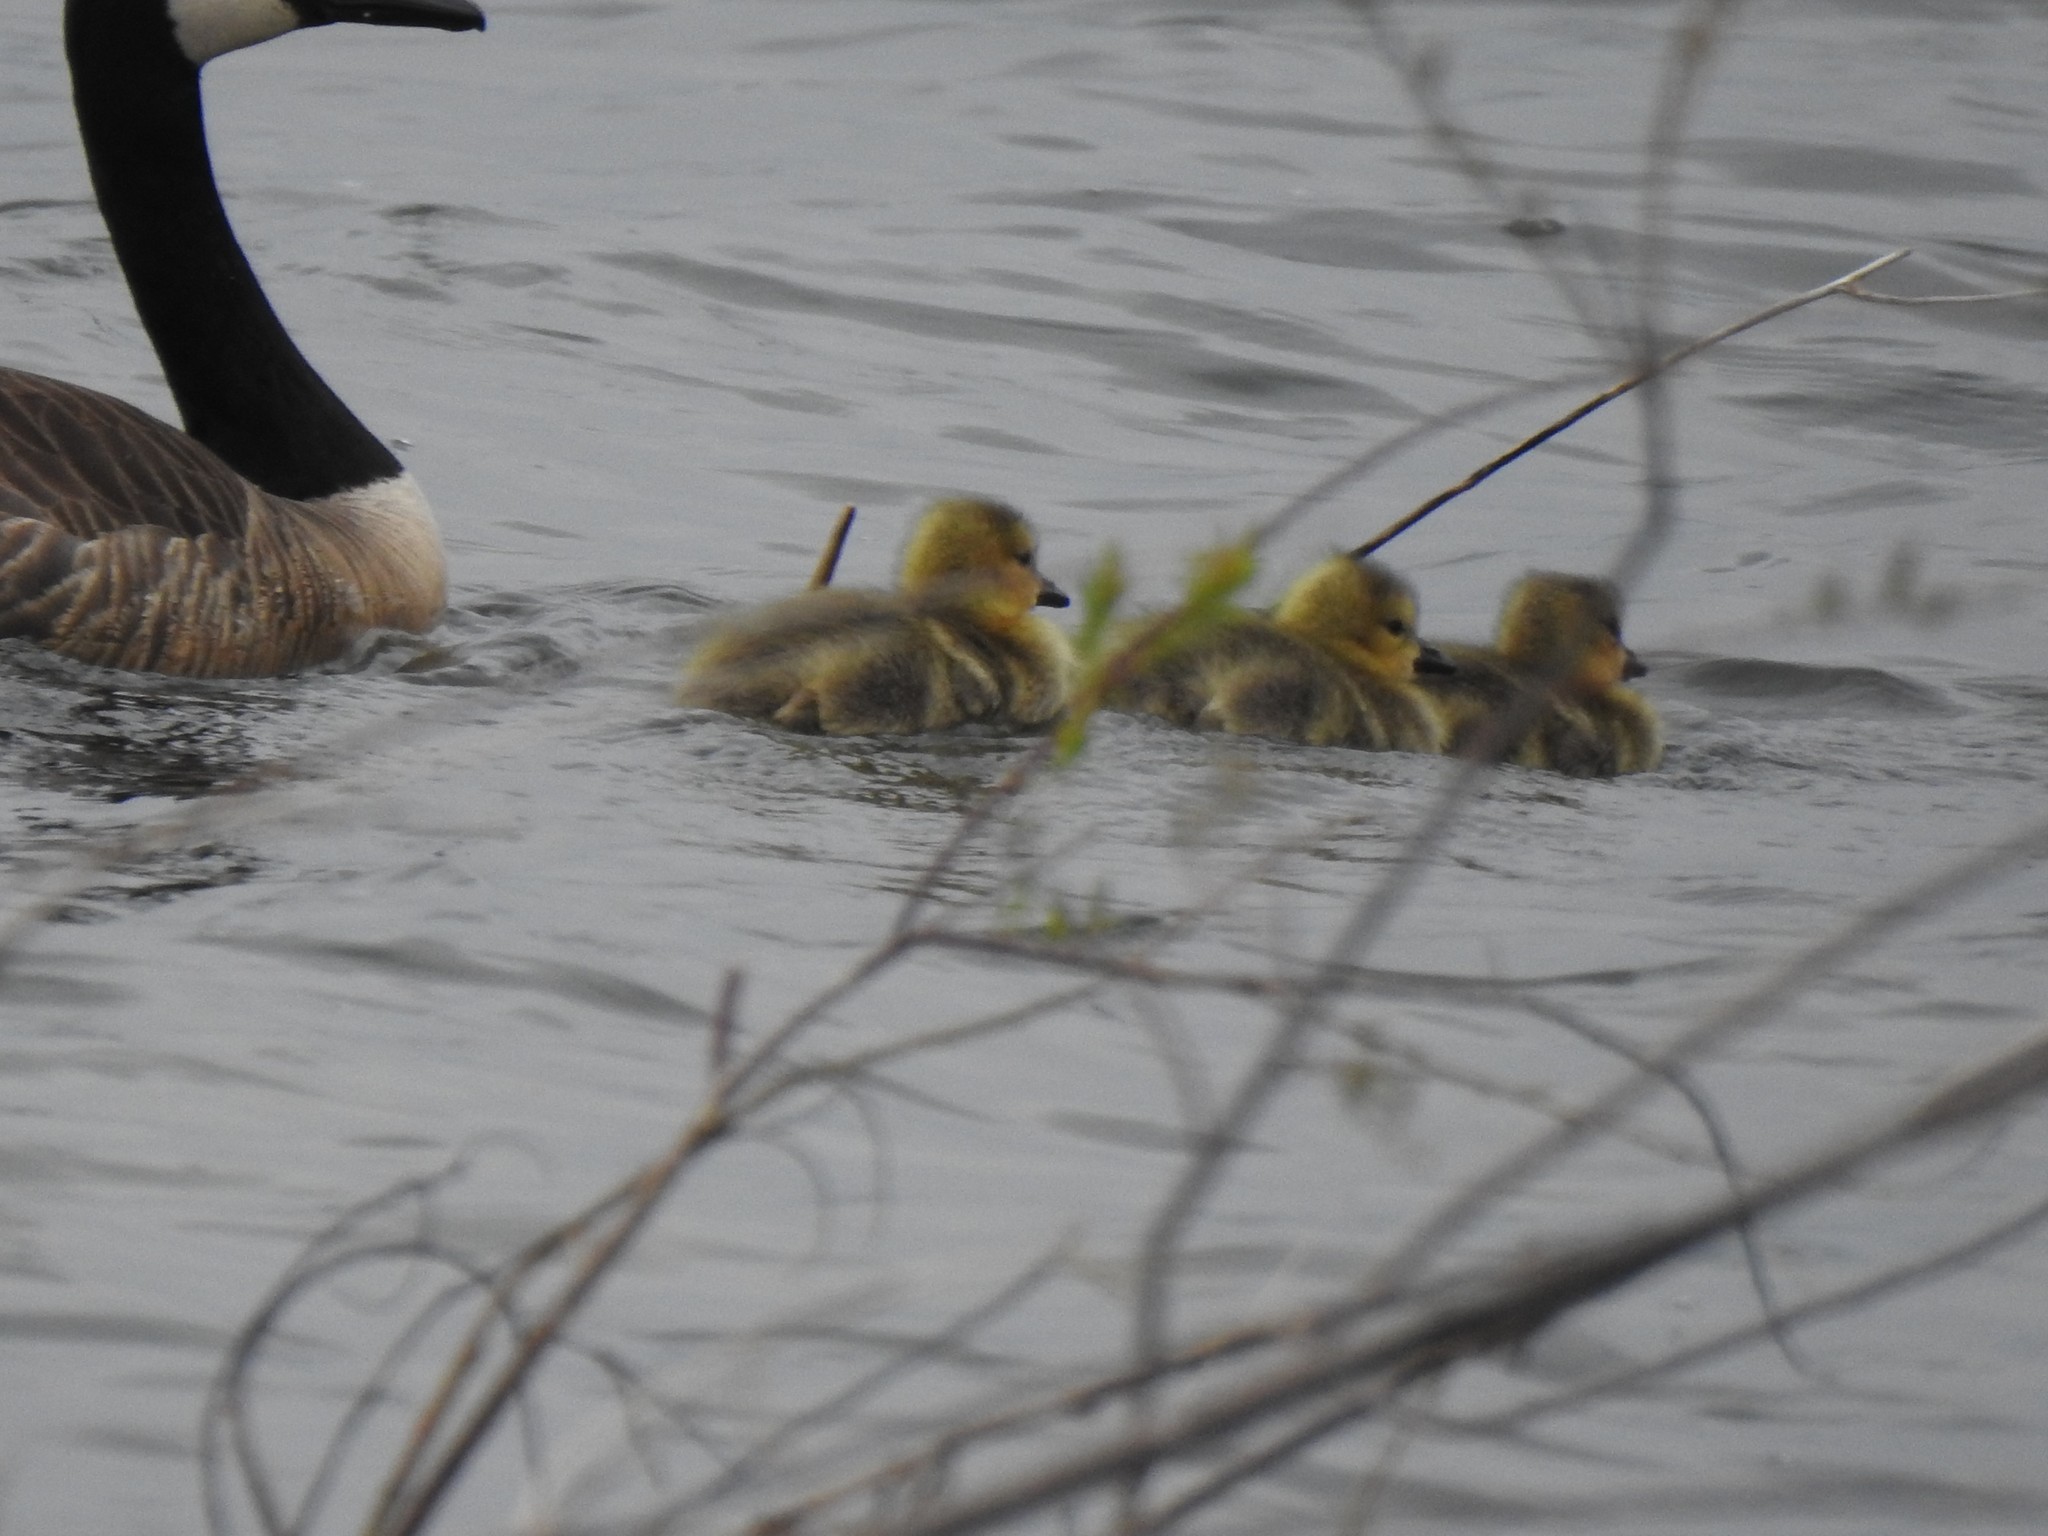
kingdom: Animalia
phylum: Chordata
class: Aves
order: Anseriformes
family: Anatidae
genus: Branta
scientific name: Branta canadensis
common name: Canada goose
